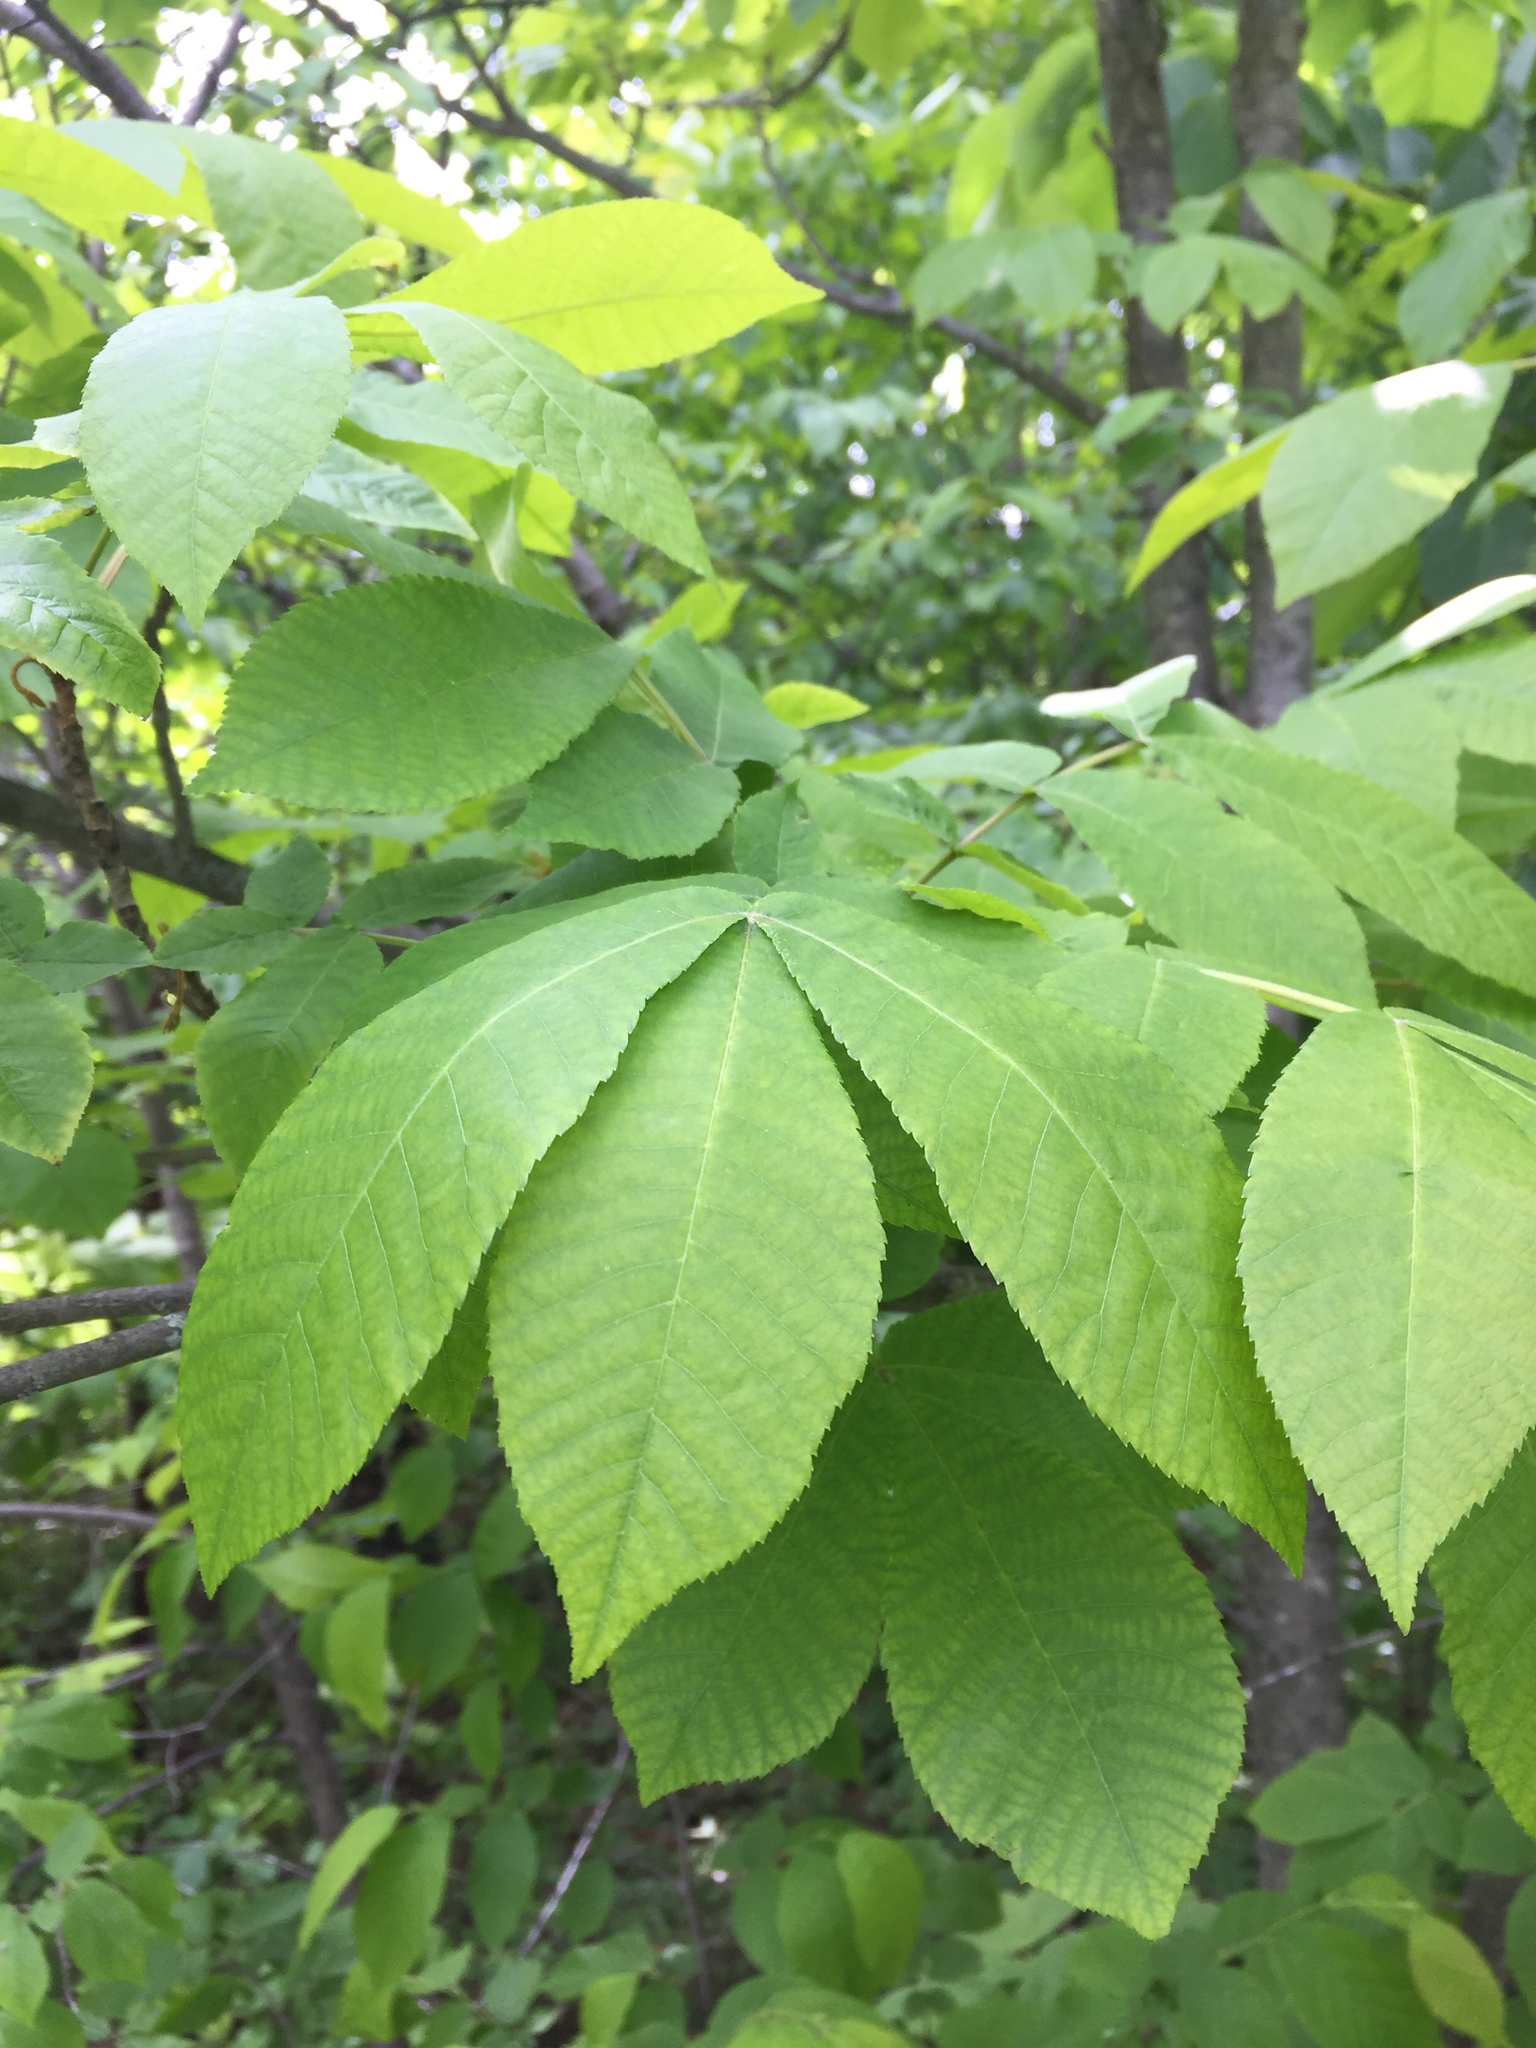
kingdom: Plantae
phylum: Tracheophyta
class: Magnoliopsida
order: Fagales
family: Juglandaceae
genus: Carya
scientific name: Carya cordiformis
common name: Bitternut hickory
